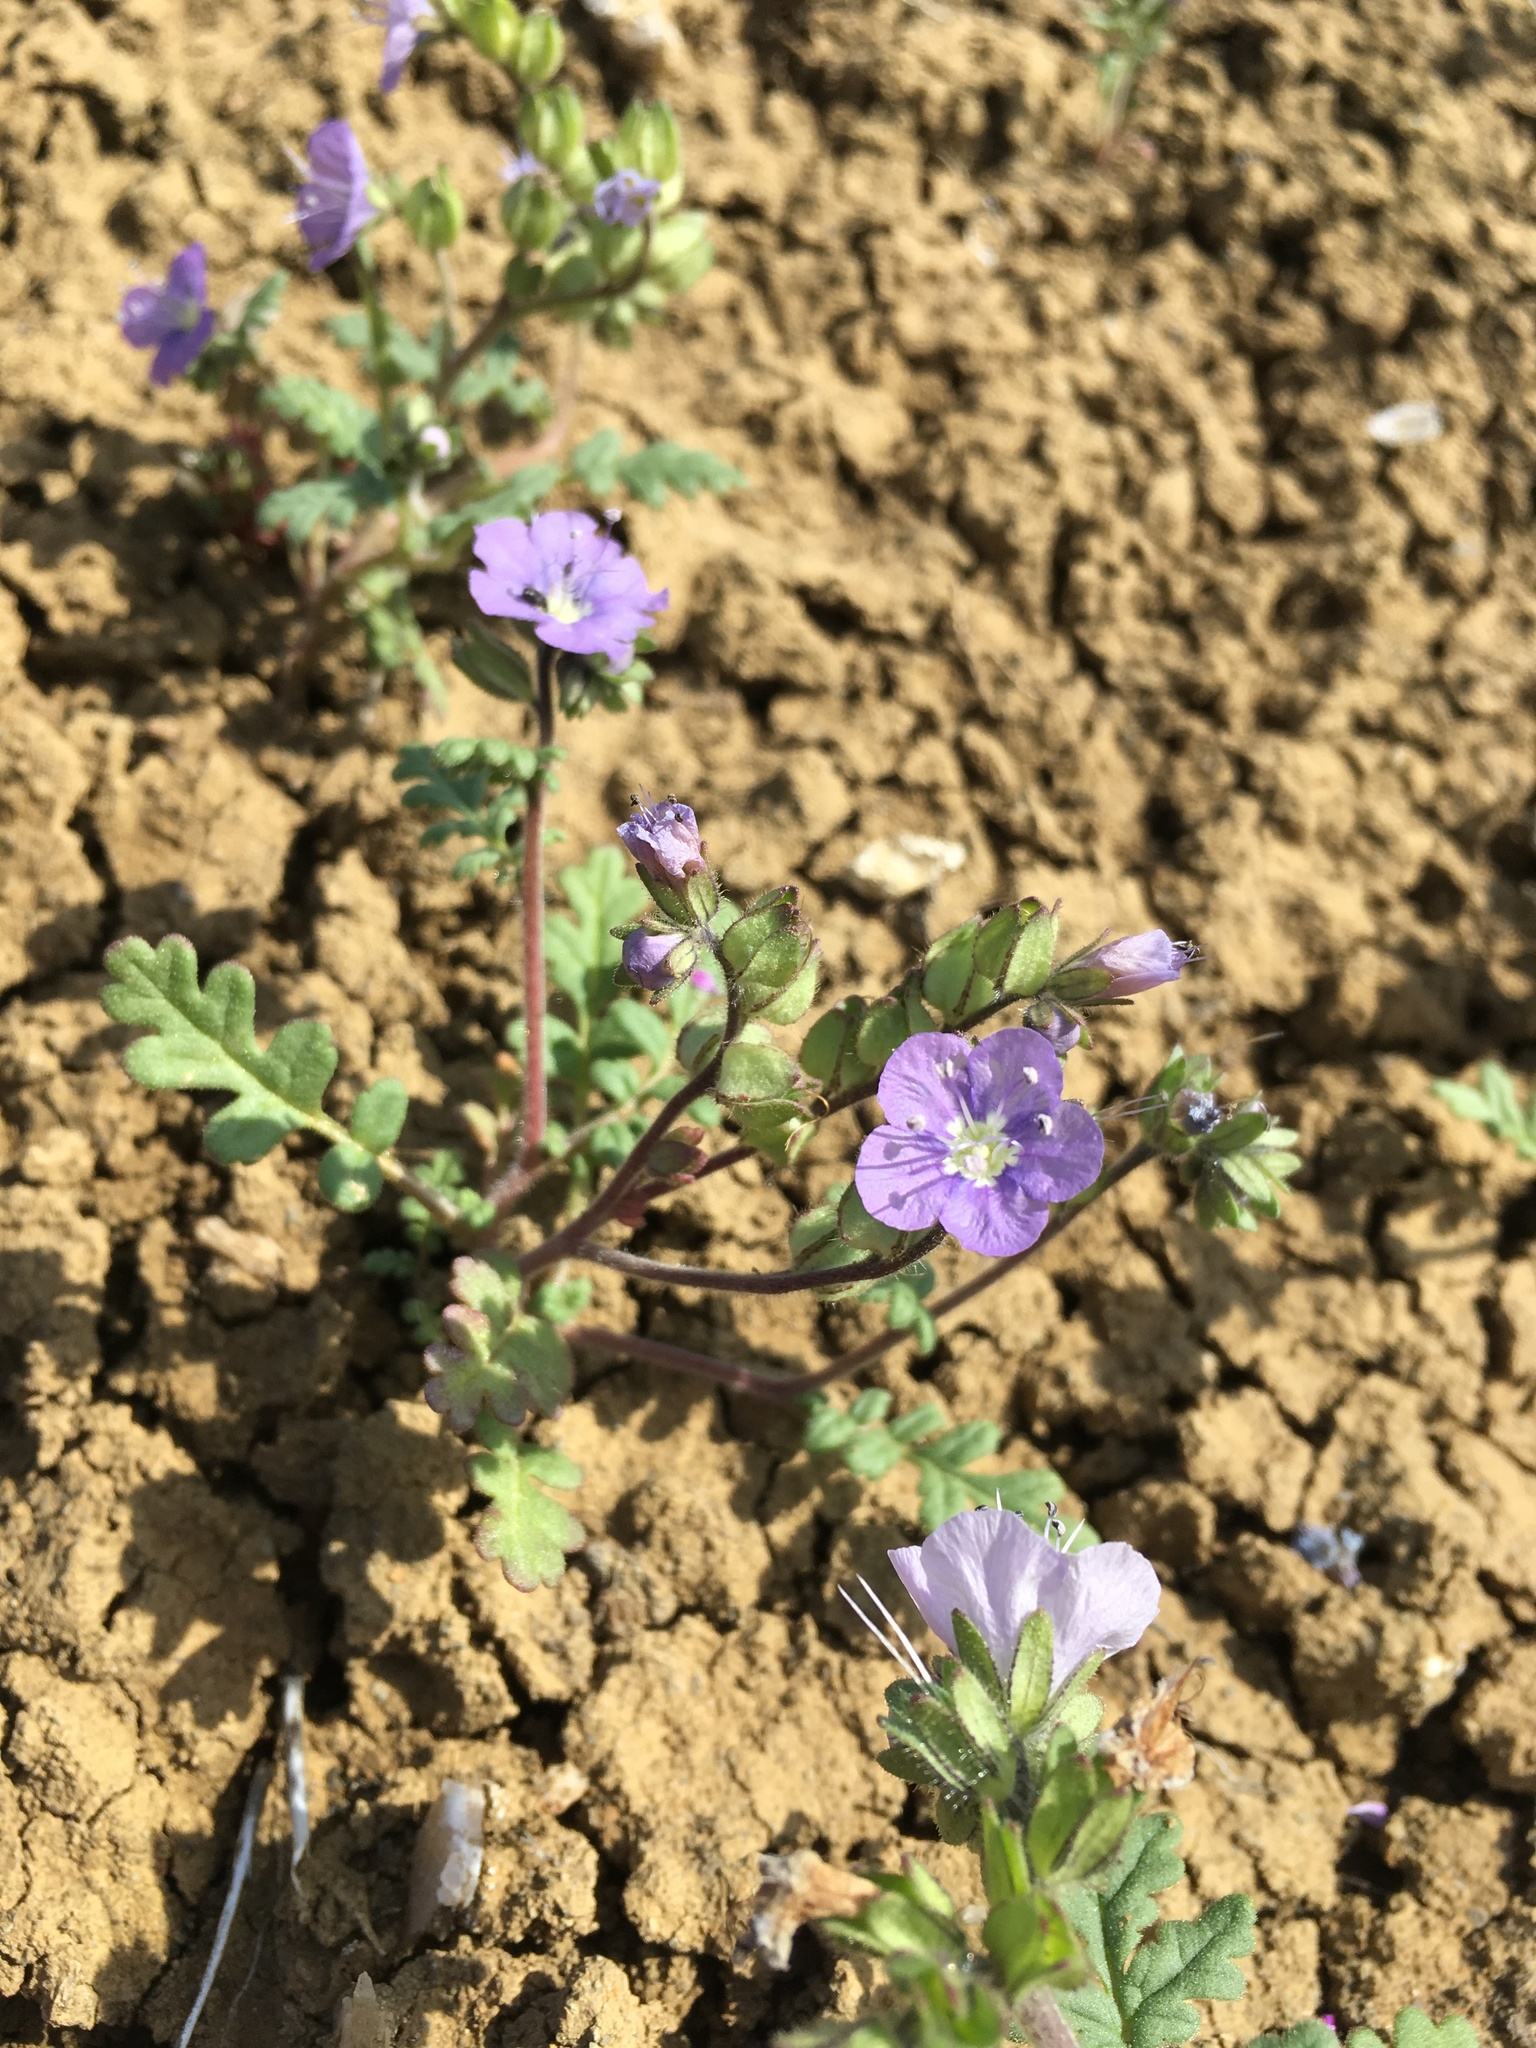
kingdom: Plantae
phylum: Tracheophyta
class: Magnoliopsida
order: Boraginales
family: Hydrophyllaceae
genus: Phacelia
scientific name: Phacelia ciliata
